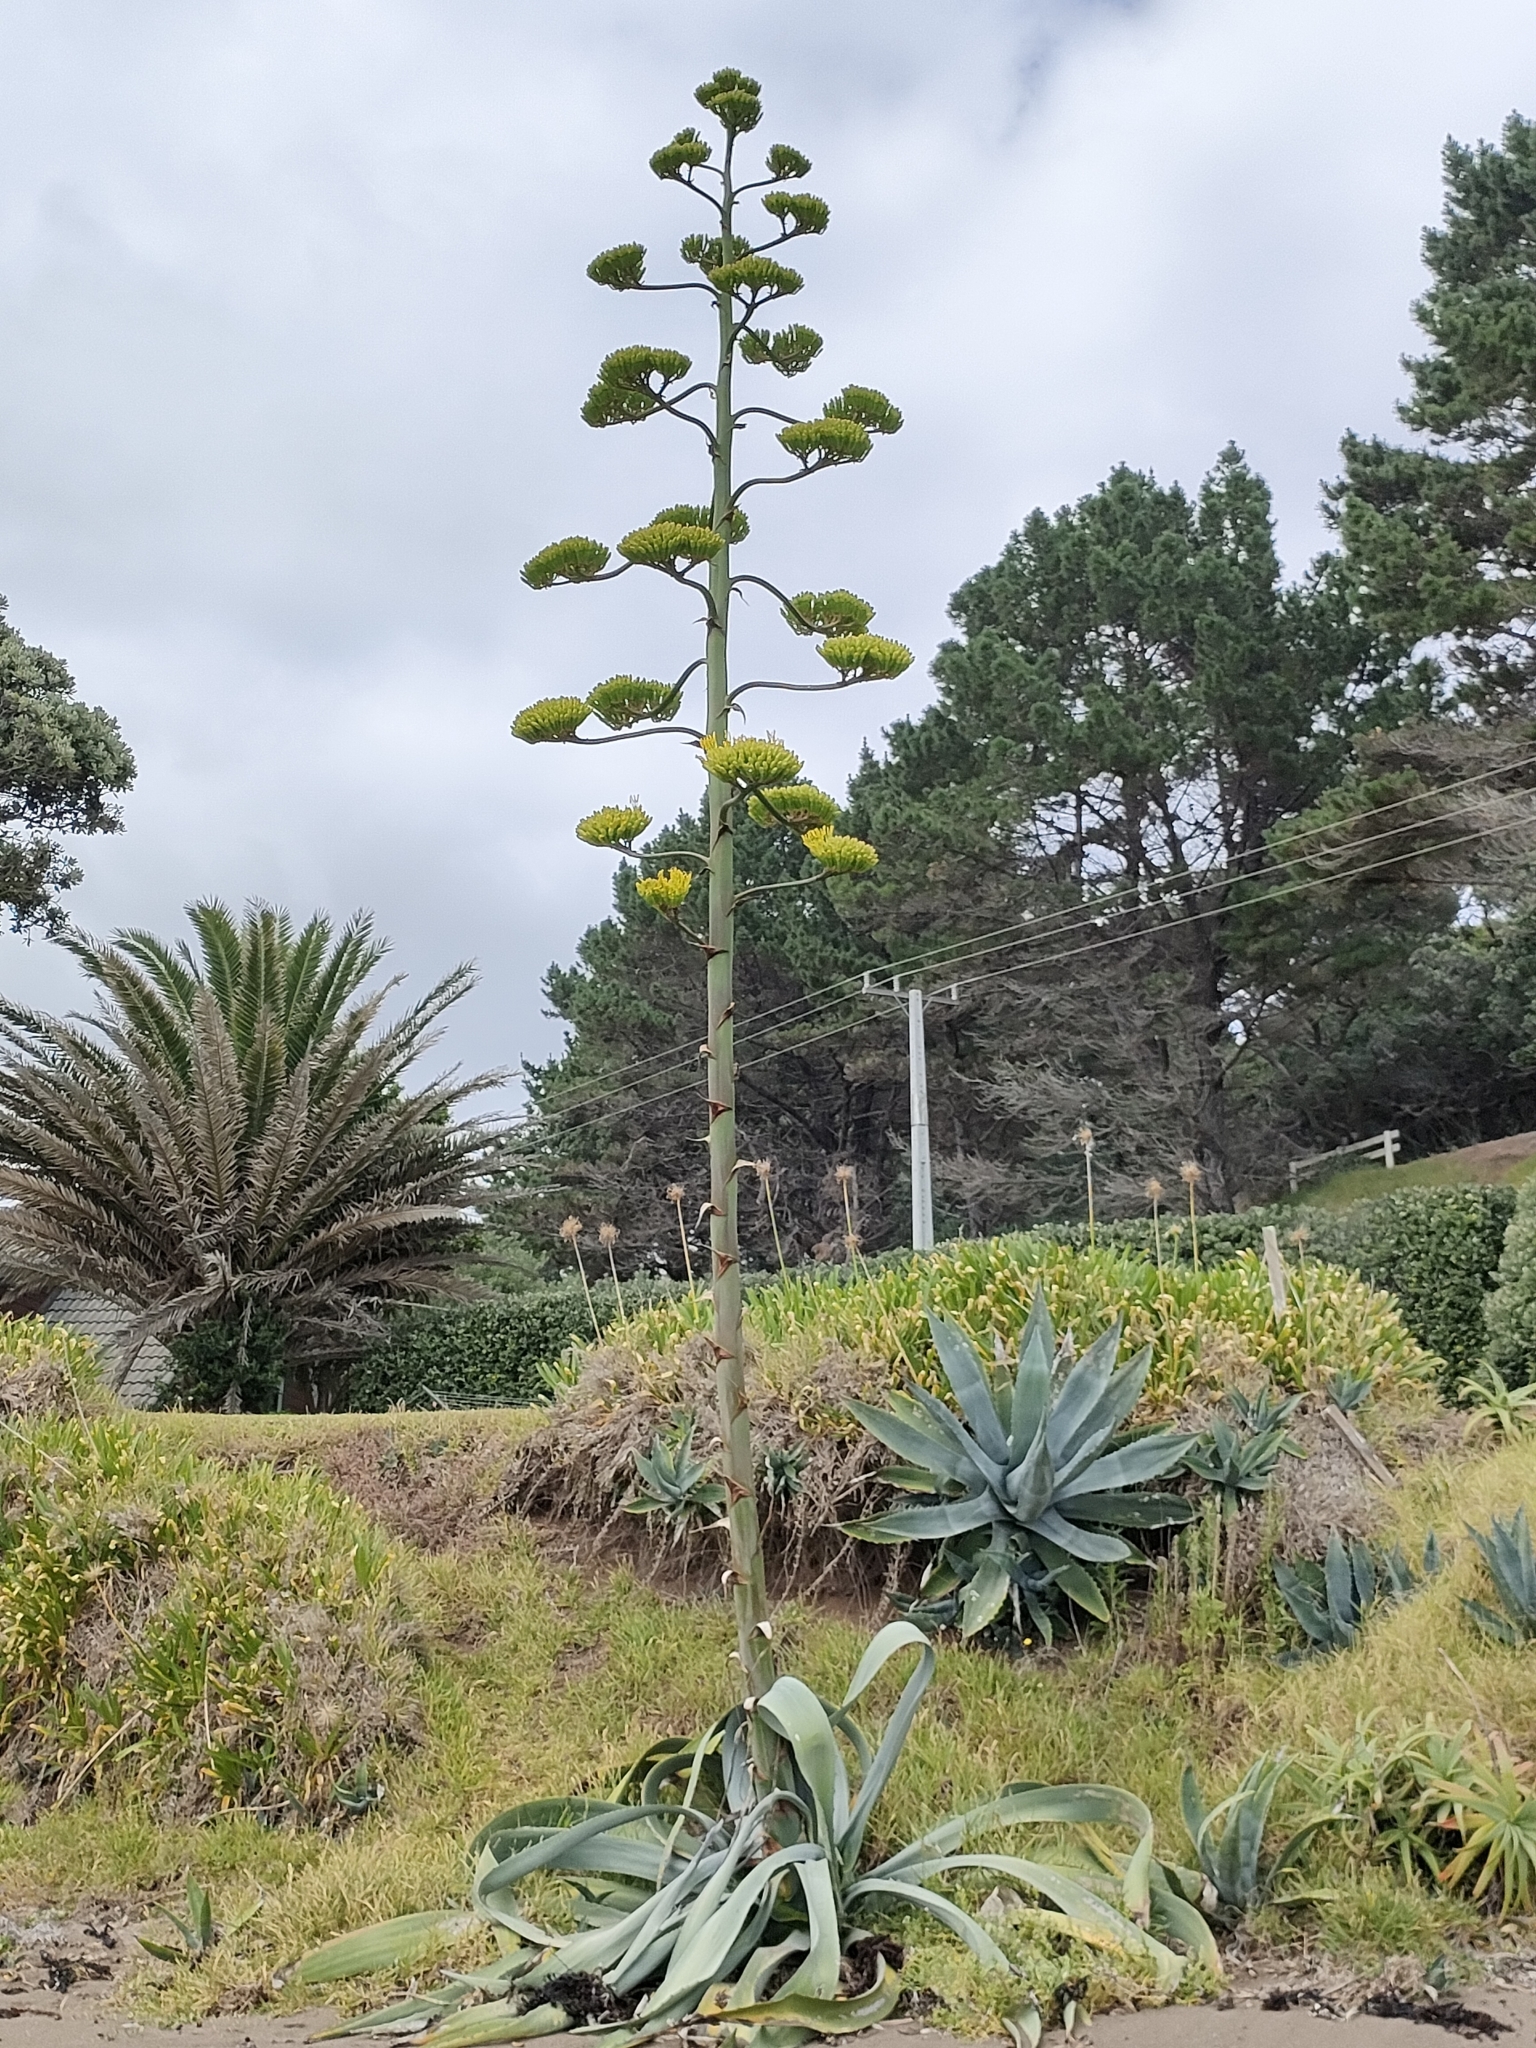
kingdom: Plantae
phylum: Tracheophyta
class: Liliopsida
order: Asparagales
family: Asparagaceae
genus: Agave
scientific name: Agave americana
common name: Centuryplant
